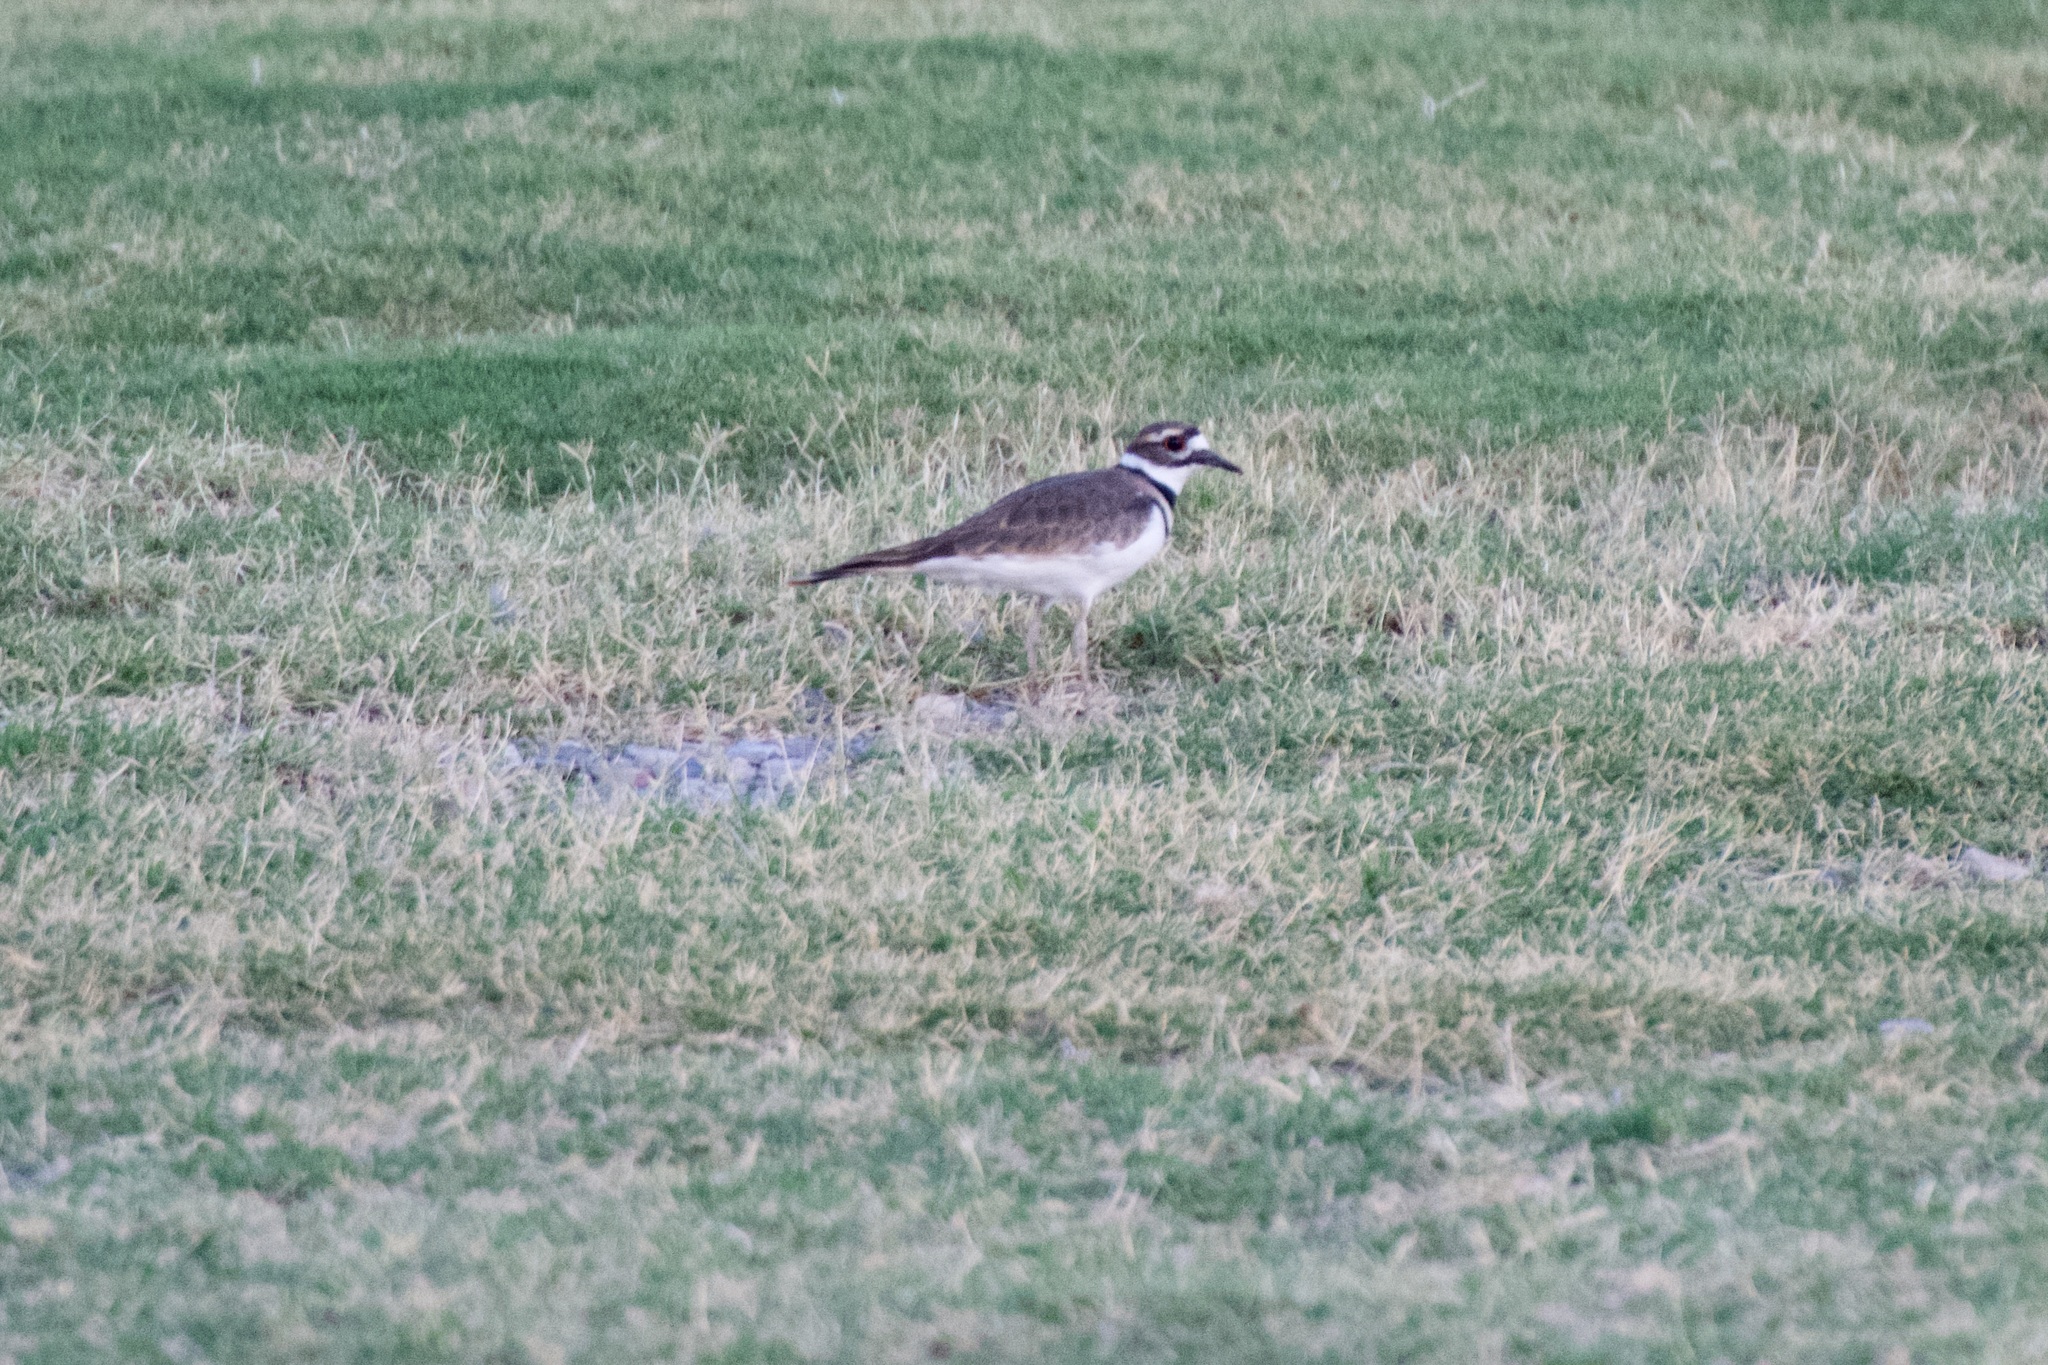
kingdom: Animalia
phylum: Chordata
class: Aves
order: Charadriiformes
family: Charadriidae
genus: Charadrius
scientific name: Charadrius vociferus
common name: Killdeer
